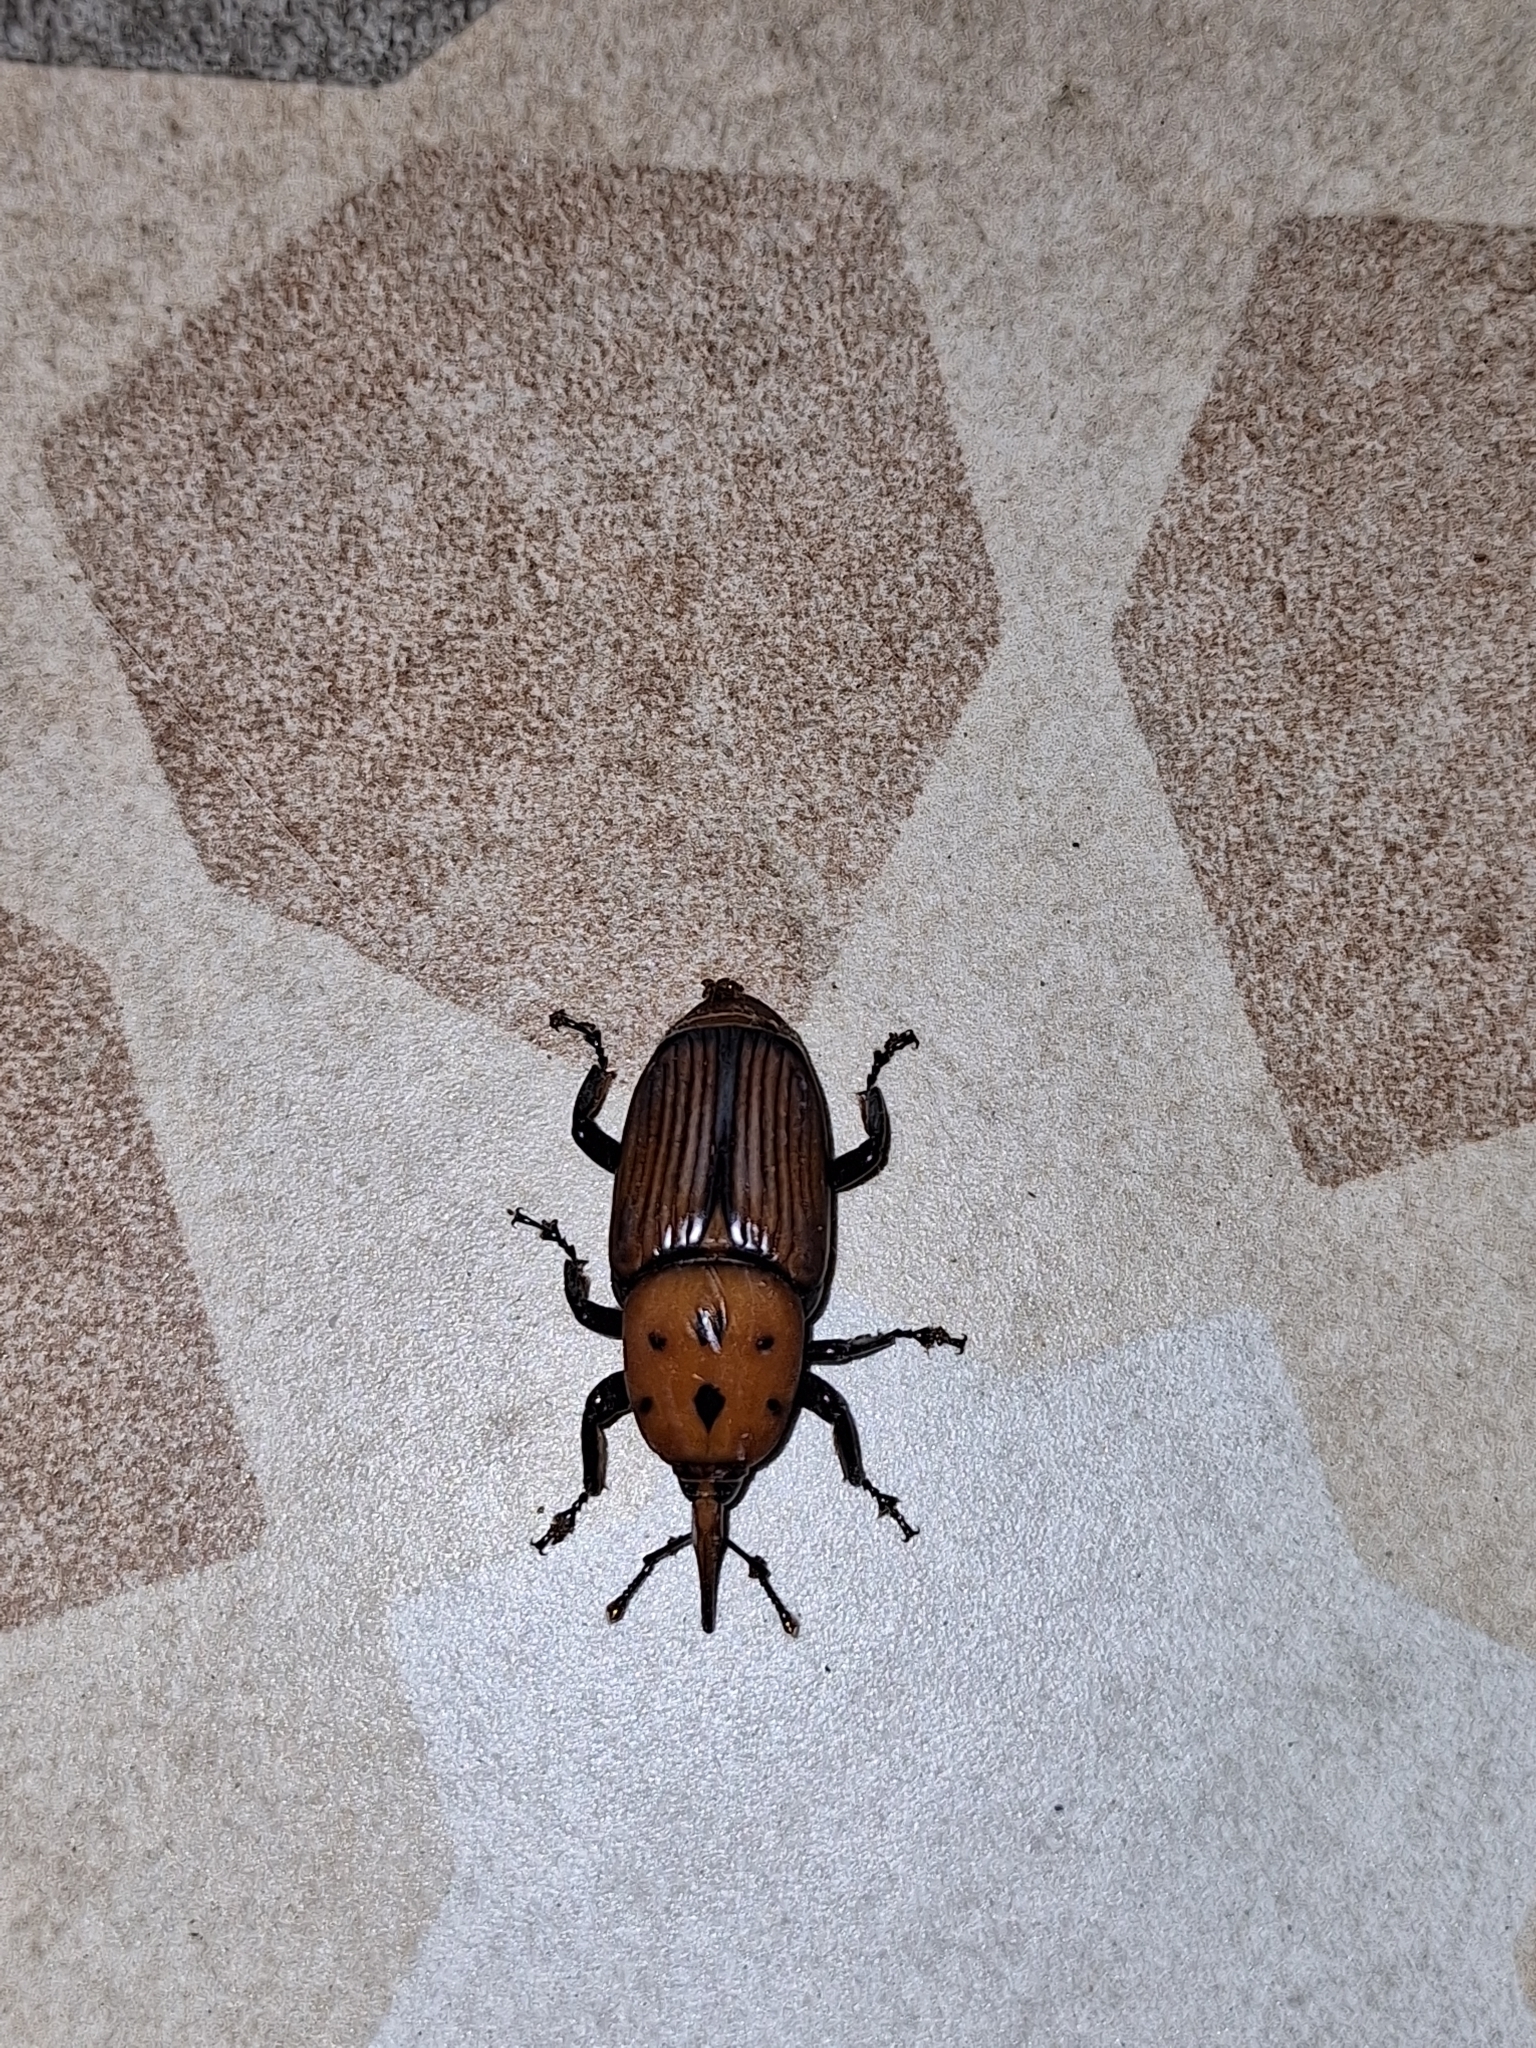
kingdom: Animalia
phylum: Arthropoda
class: Insecta
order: Coleoptera
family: Dryophthoridae
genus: Rhynchophorus
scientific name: Rhynchophorus ferrugineus
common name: Red palm weevil
